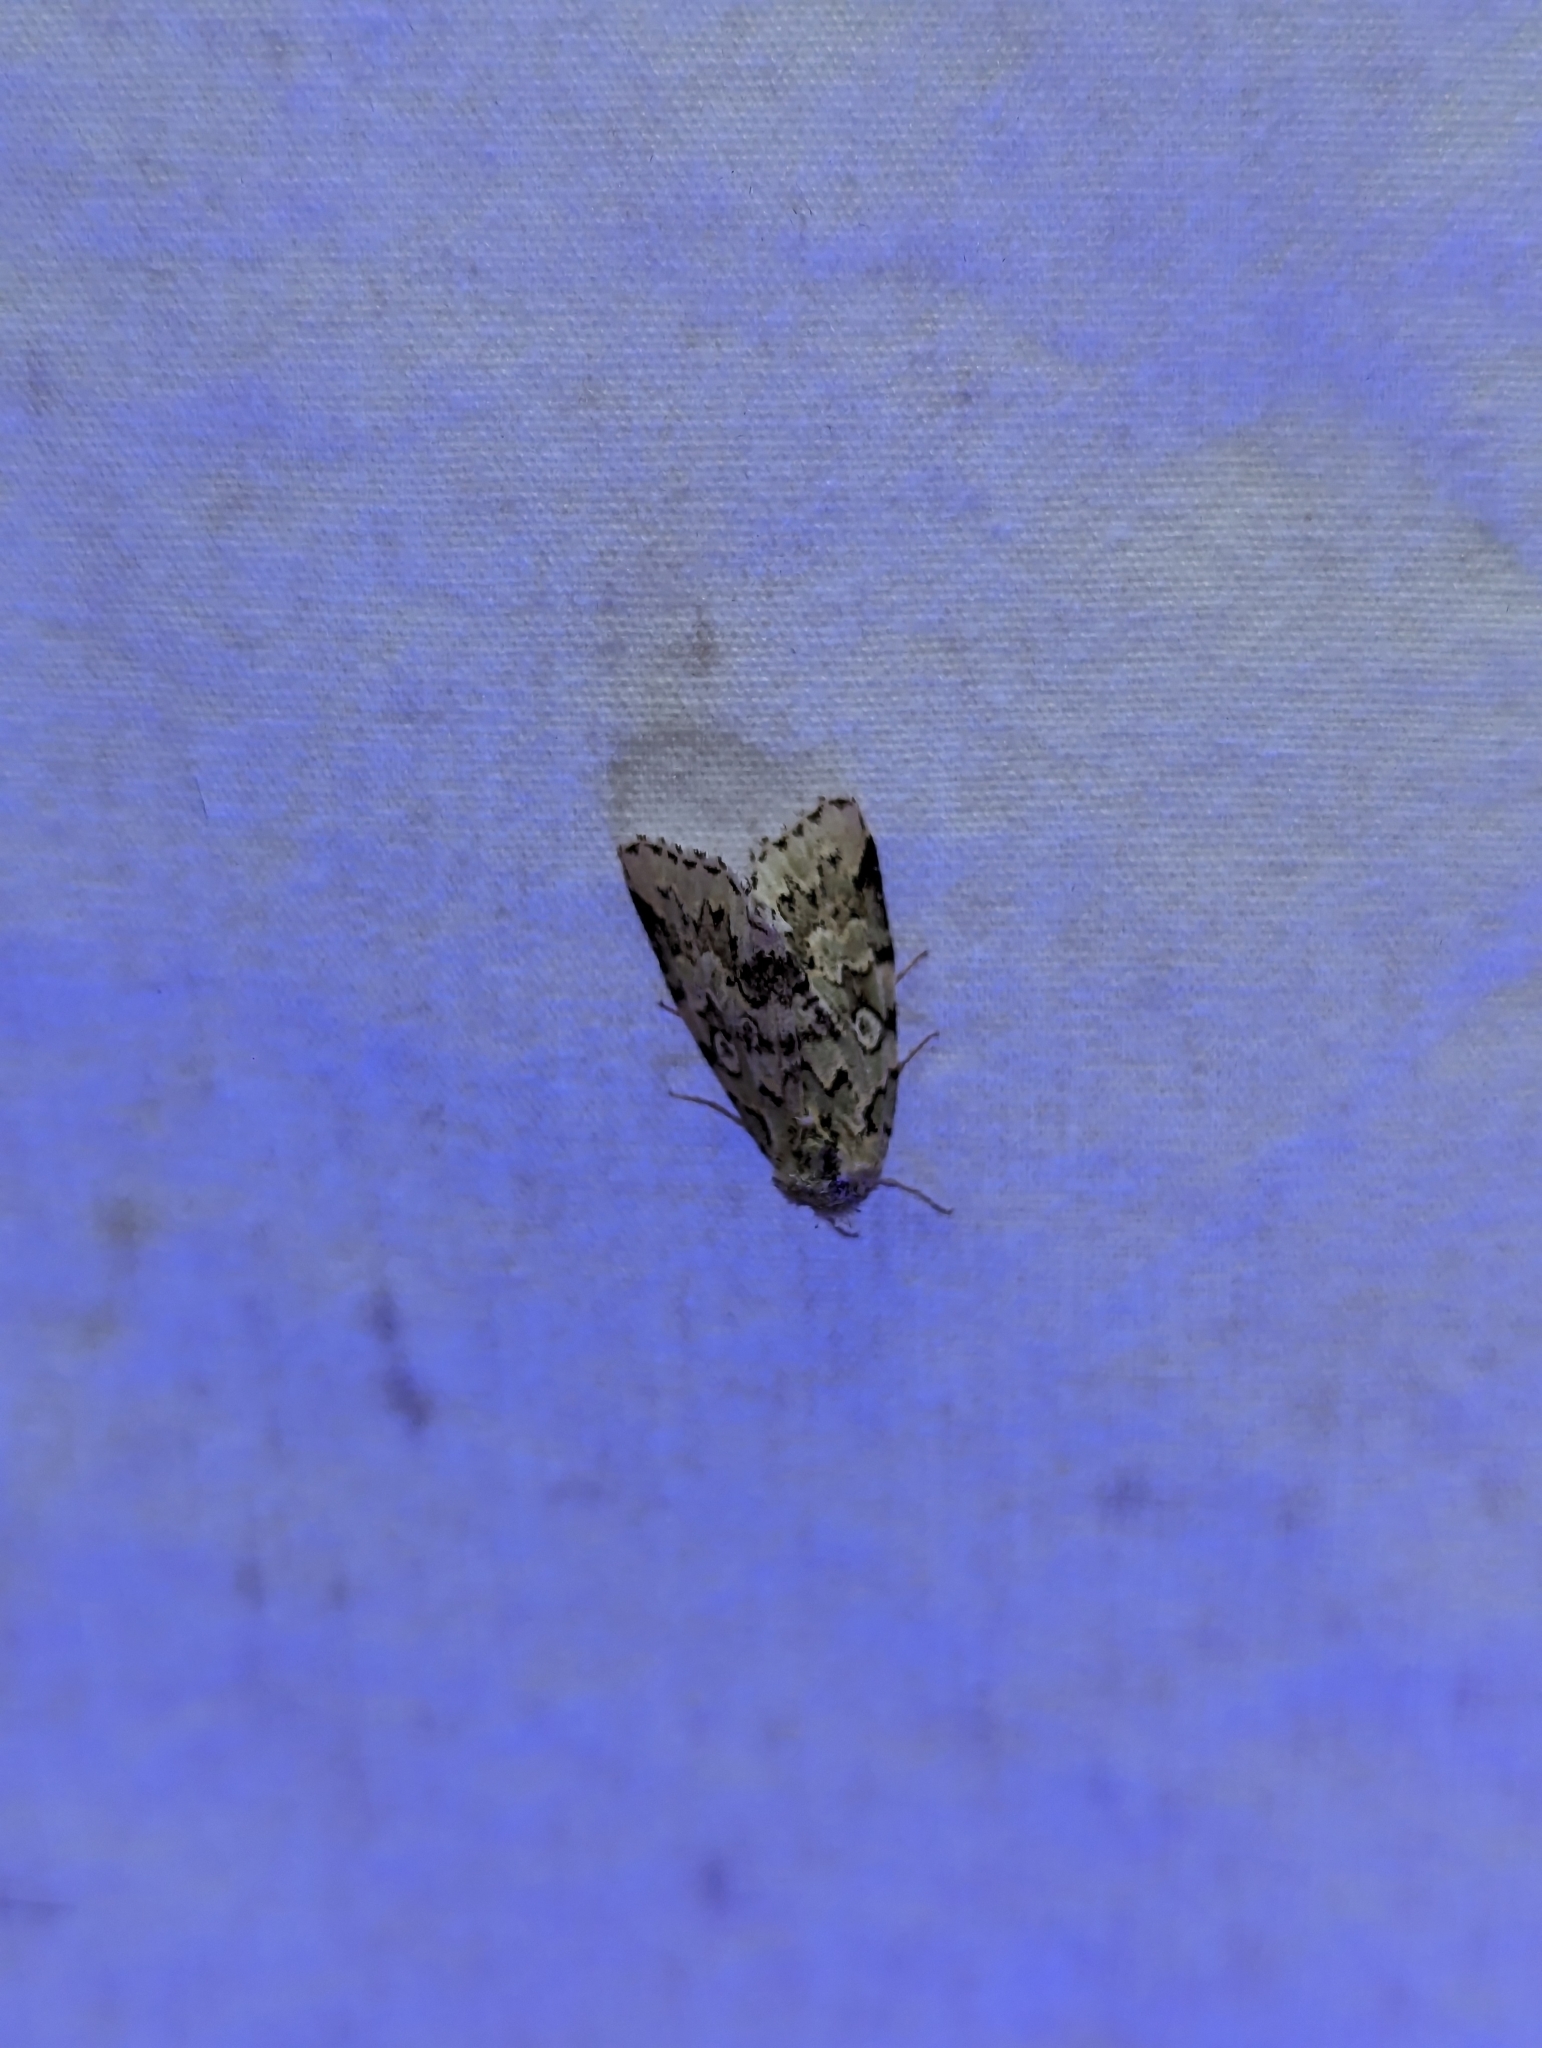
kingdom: Animalia
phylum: Arthropoda
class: Insecta
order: Lepidoptera
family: Noctuidae
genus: Bryolymnia
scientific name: Bryolymnia viridata
